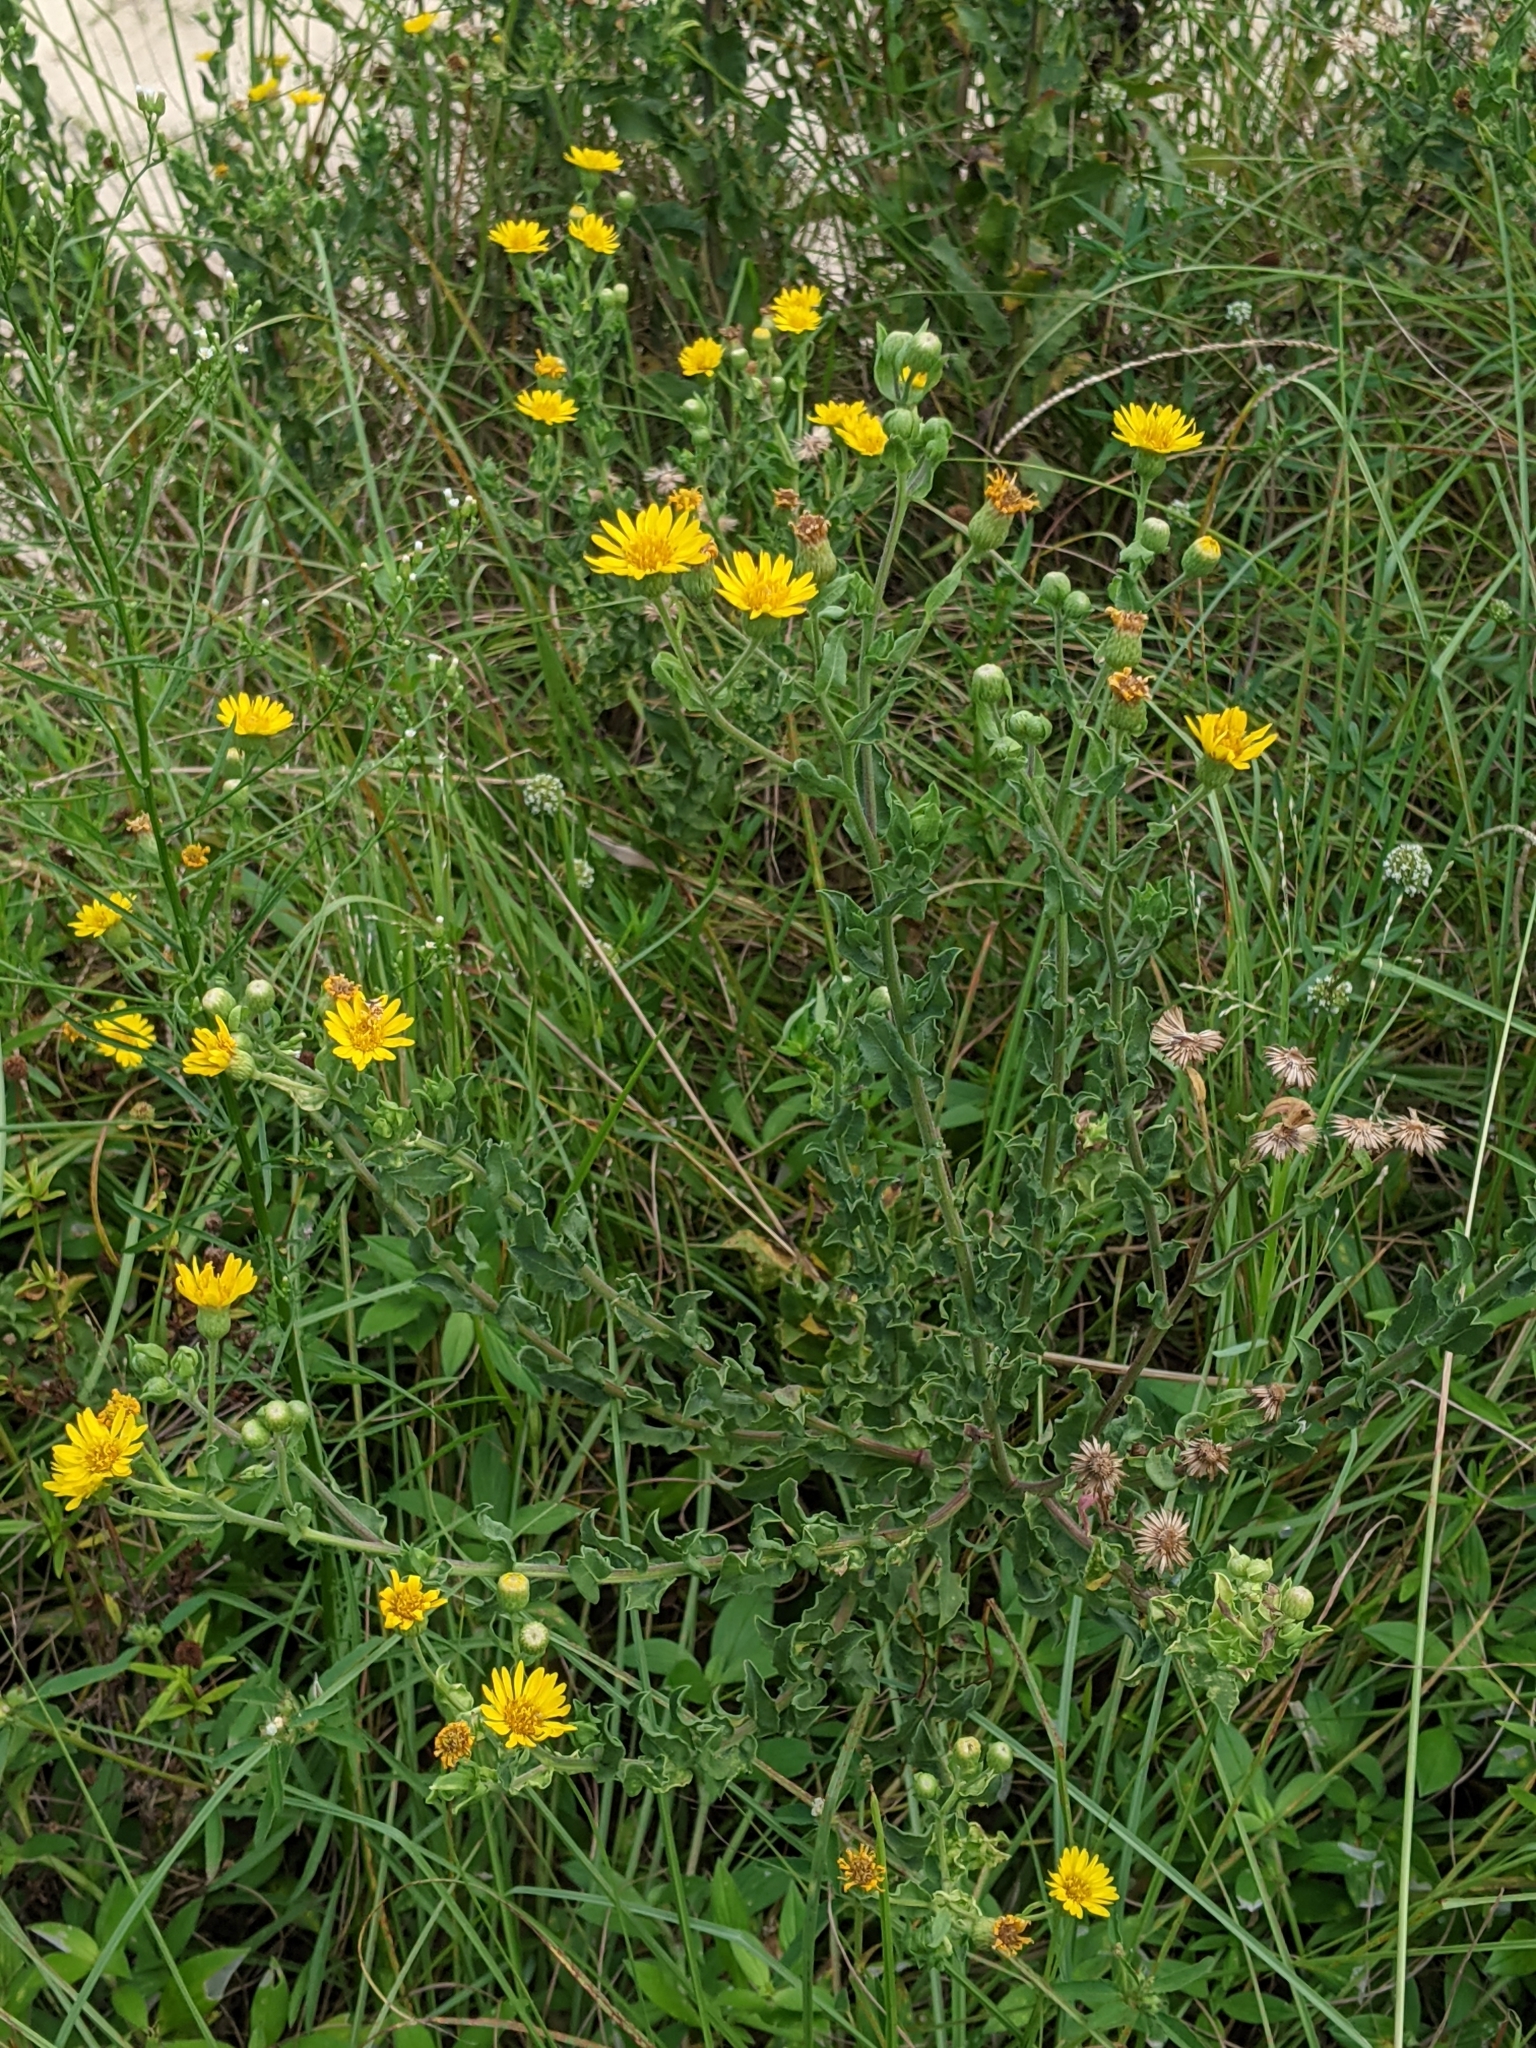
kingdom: Plantae
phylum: Tracheophyta
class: Magnoliopsida
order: Asterales
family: Asteraceae
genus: Heterotheca
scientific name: Heterotheca subaxillaris
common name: Camphorweed
